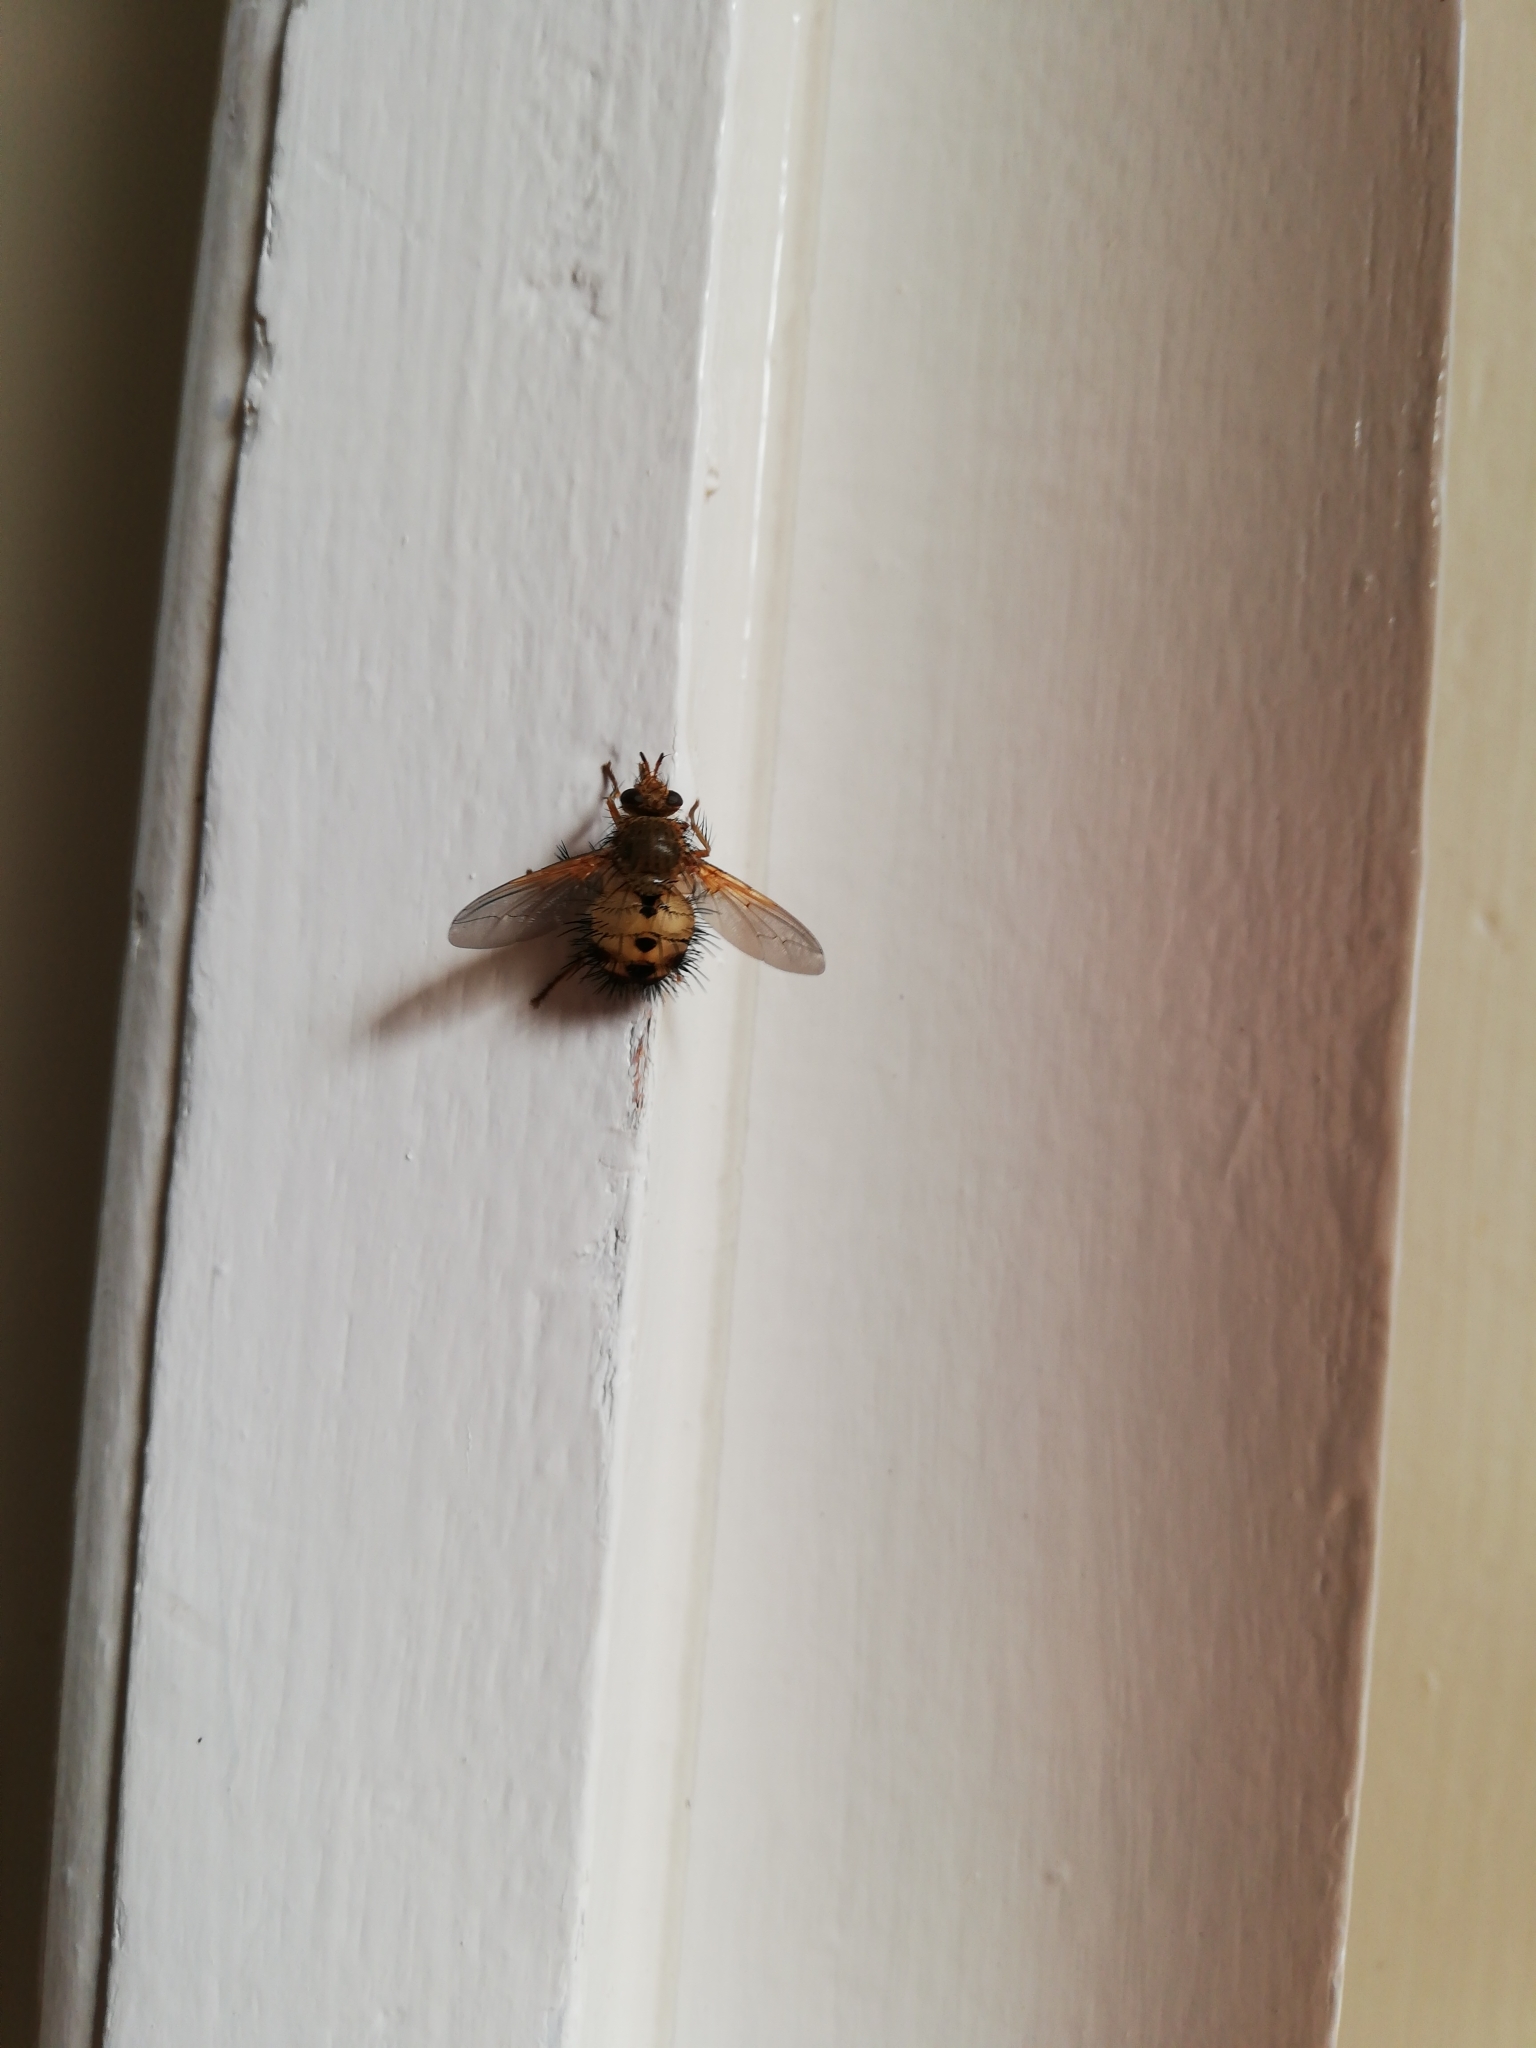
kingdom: Animalia
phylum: Arthropoda
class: Insecta
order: Diptera
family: Tachinidae
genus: Dejeania
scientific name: Dejeania bombylans
